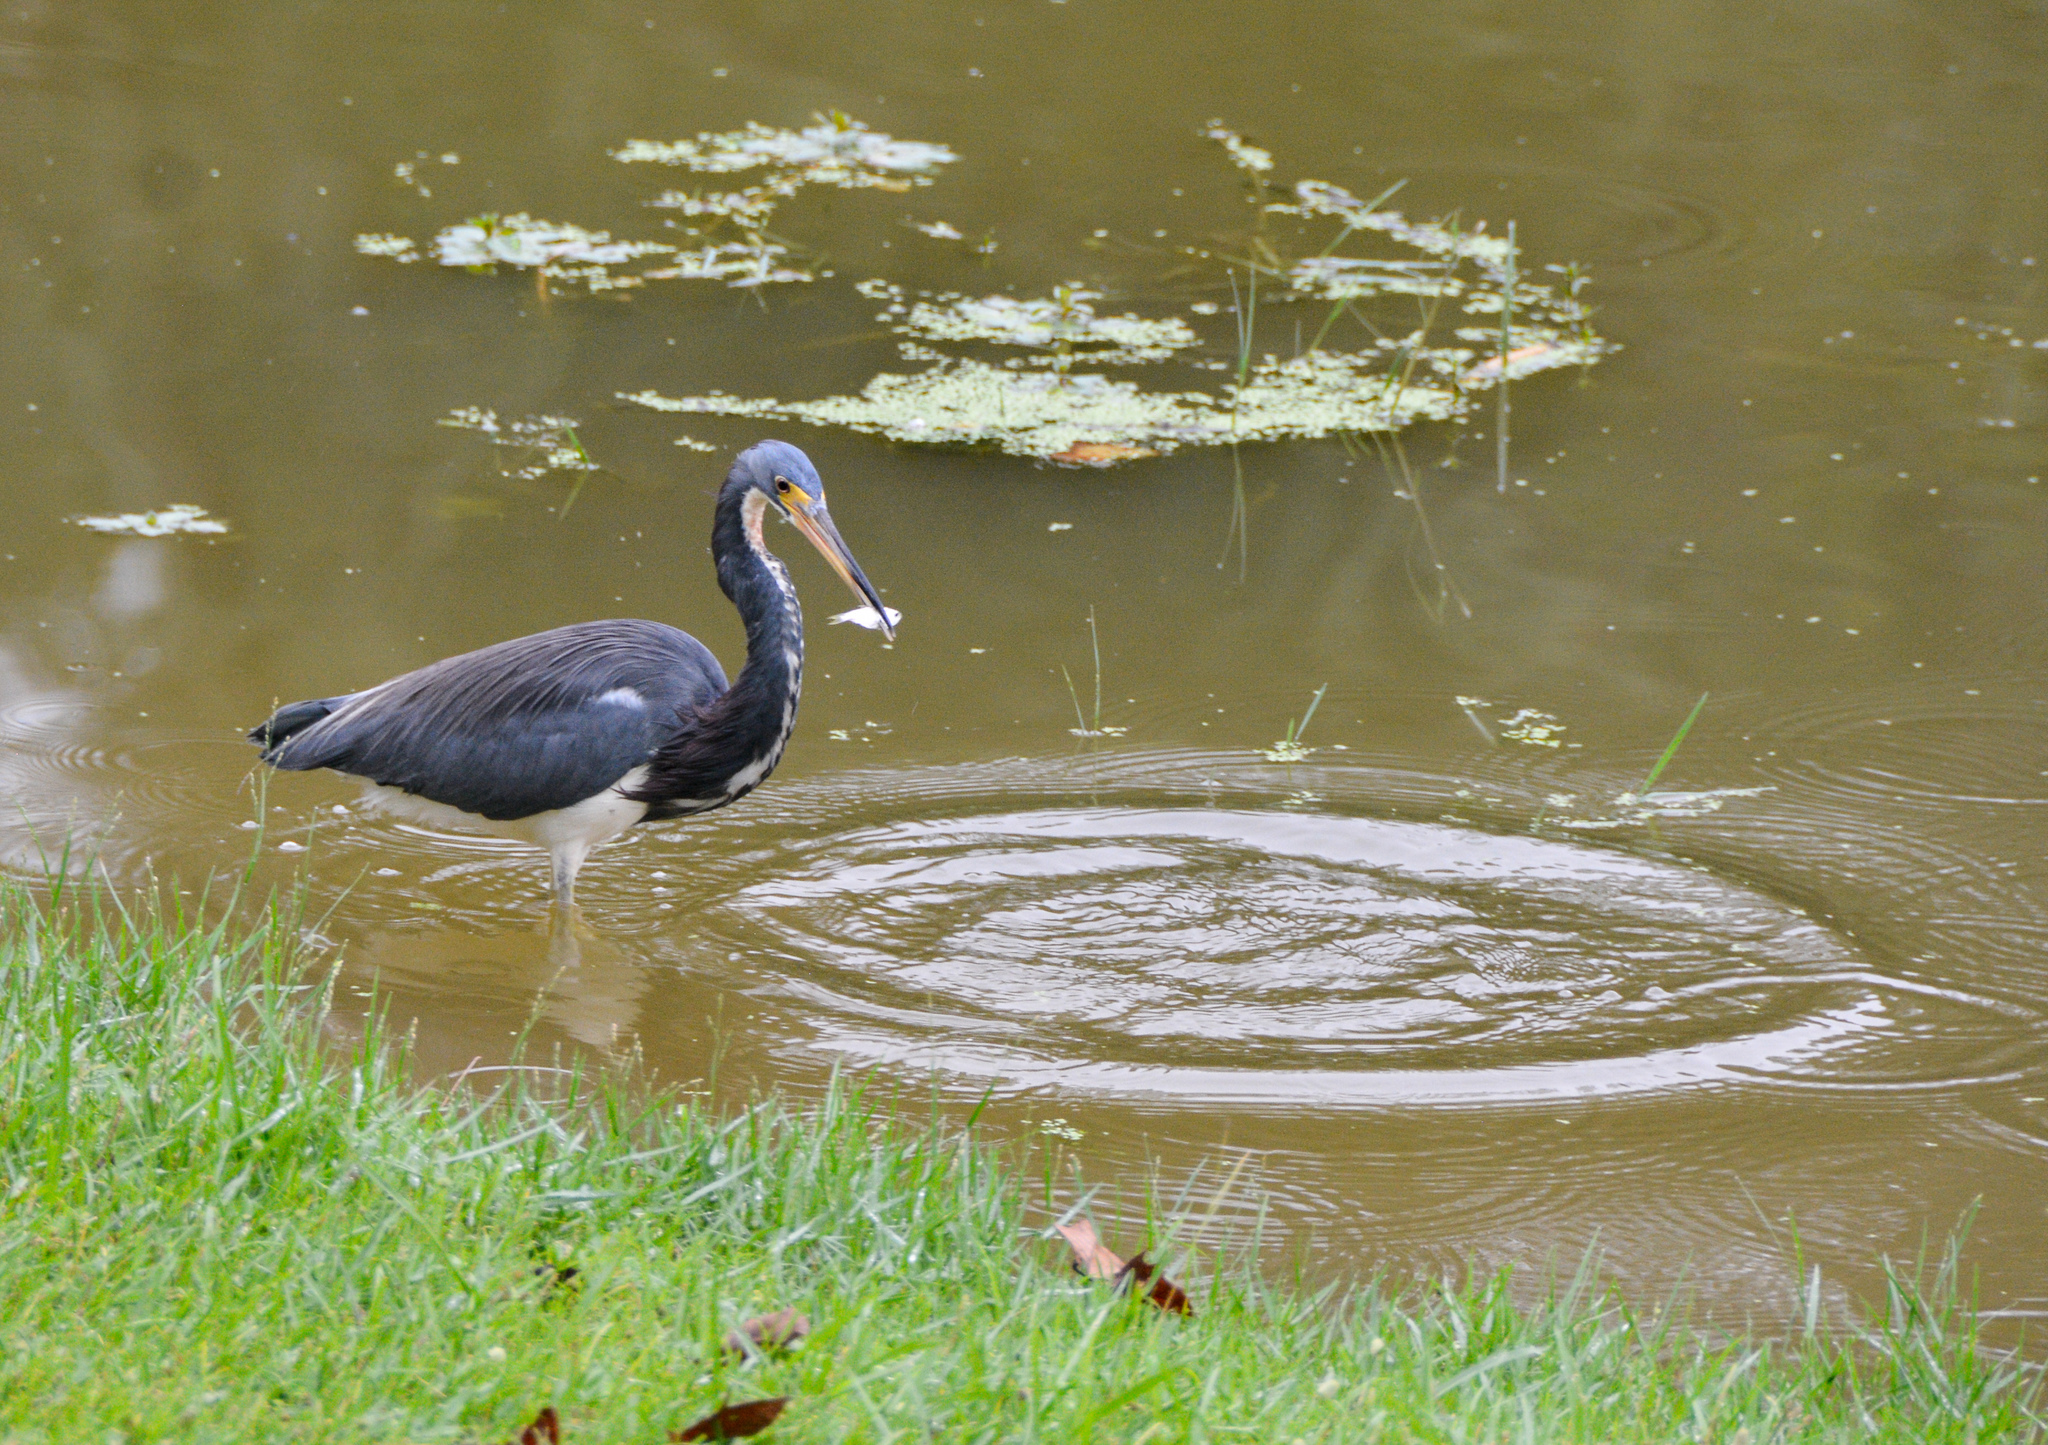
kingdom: Animalia
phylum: Chordata
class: Aves
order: Pelecaniformes
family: Ardeidae
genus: Egretta
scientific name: Egretta tricolor
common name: Tricolored heron
